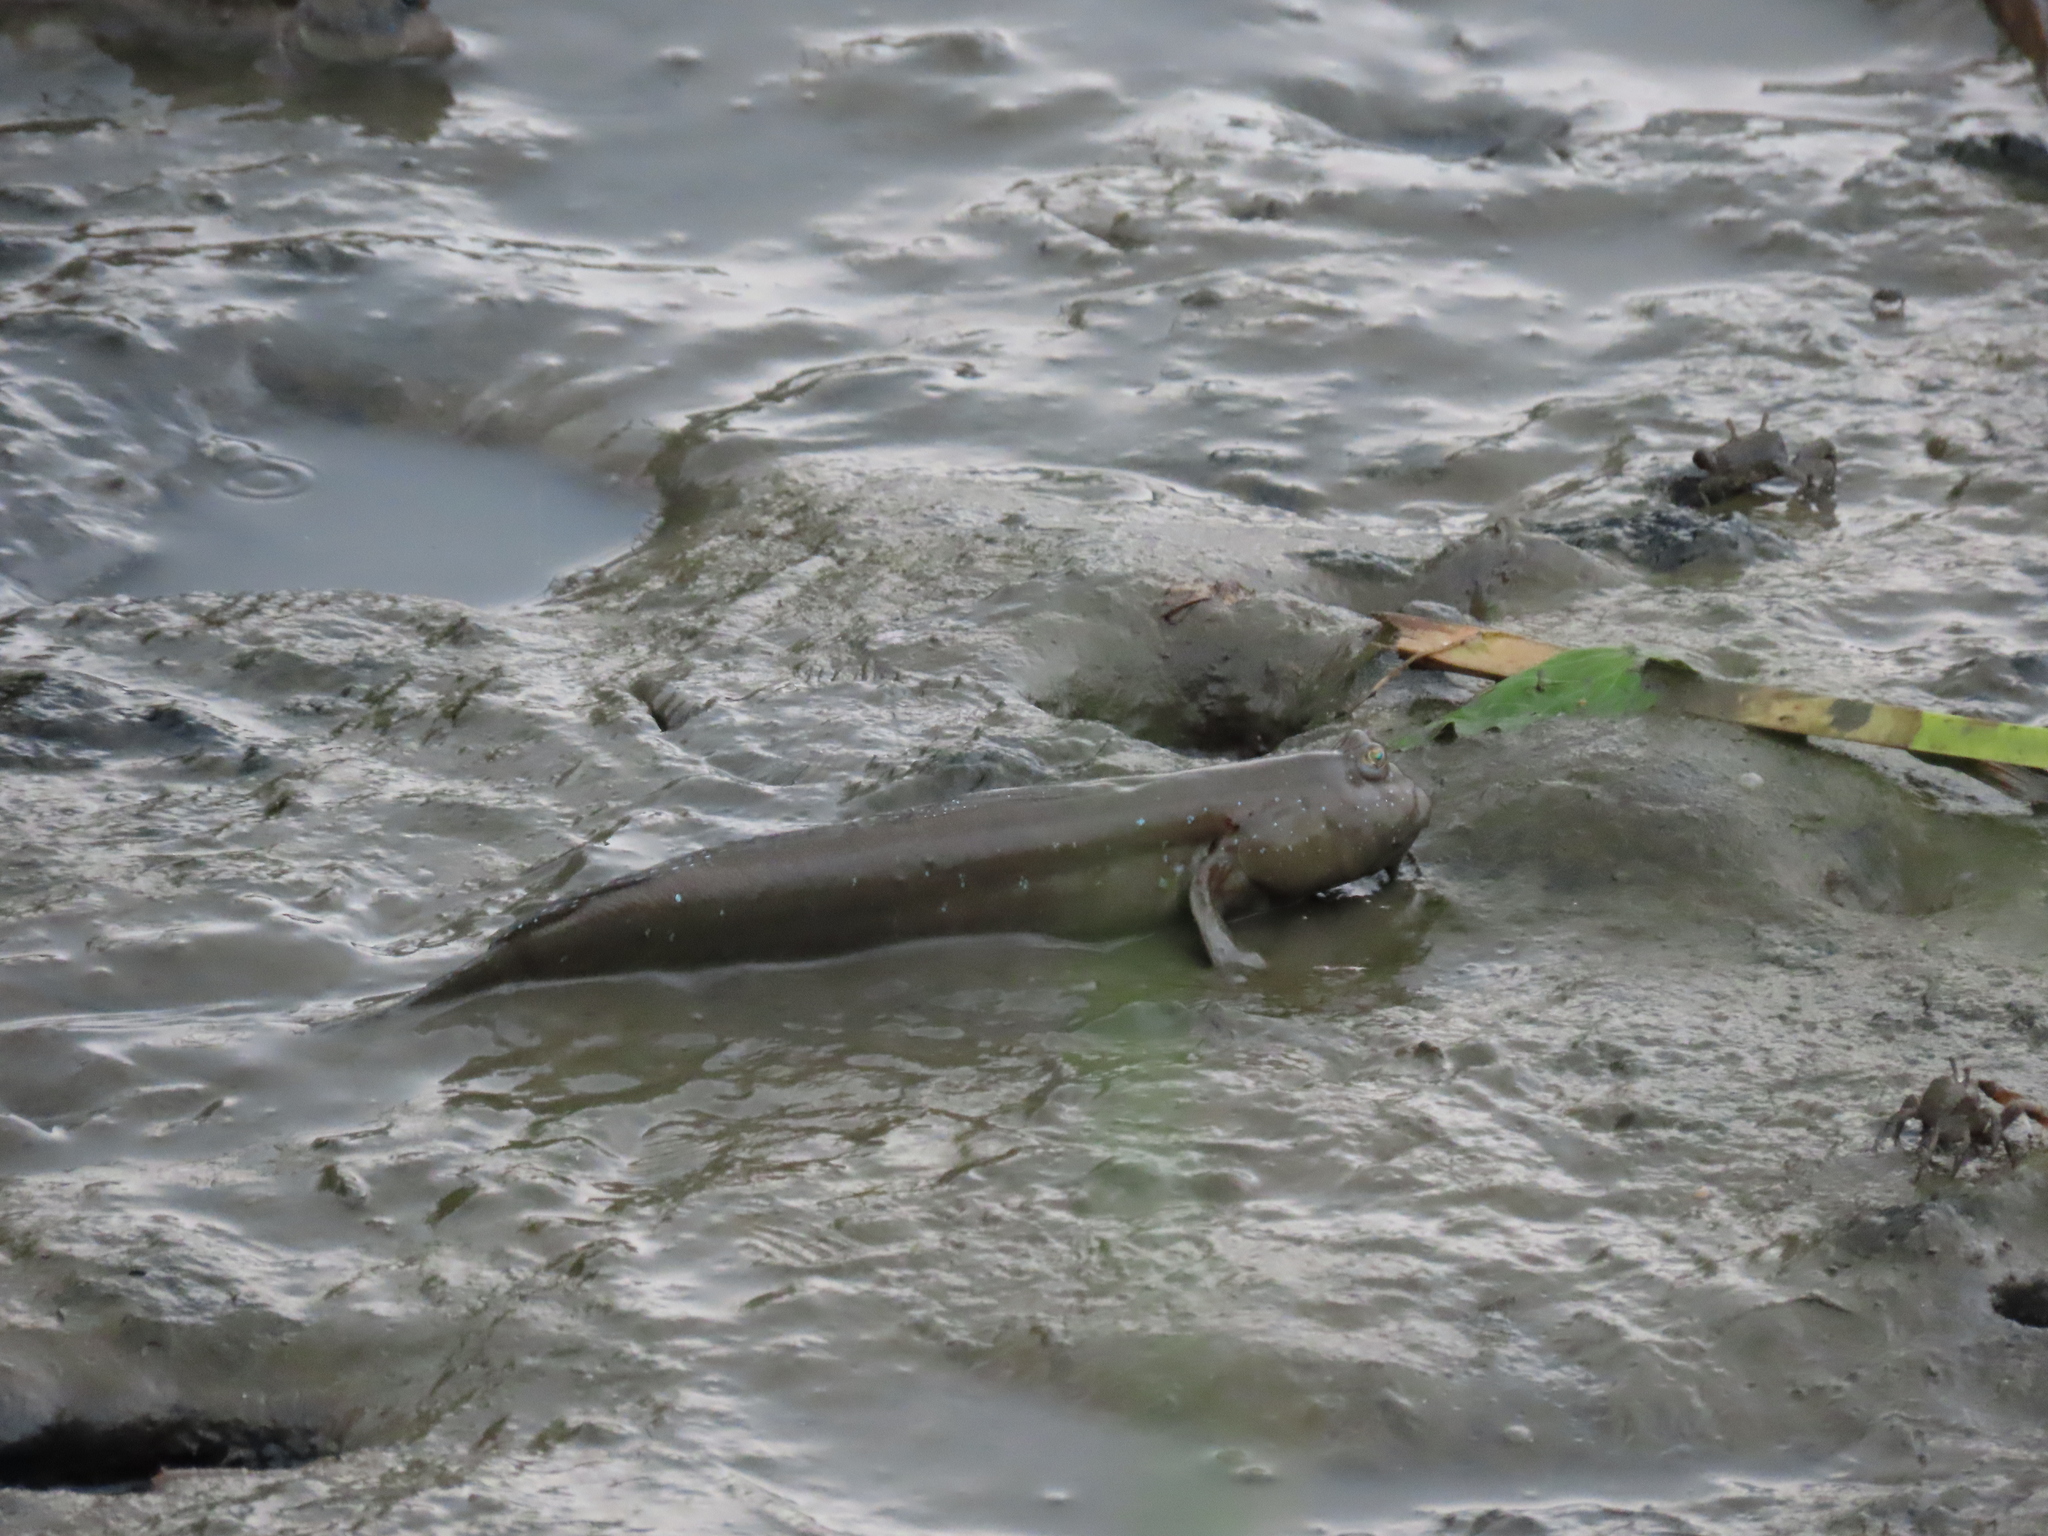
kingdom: Animalia
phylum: Chordata
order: Perciformes
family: Gobiidae
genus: Boleophthalmus
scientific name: Boleophthalmus pectinirostris
